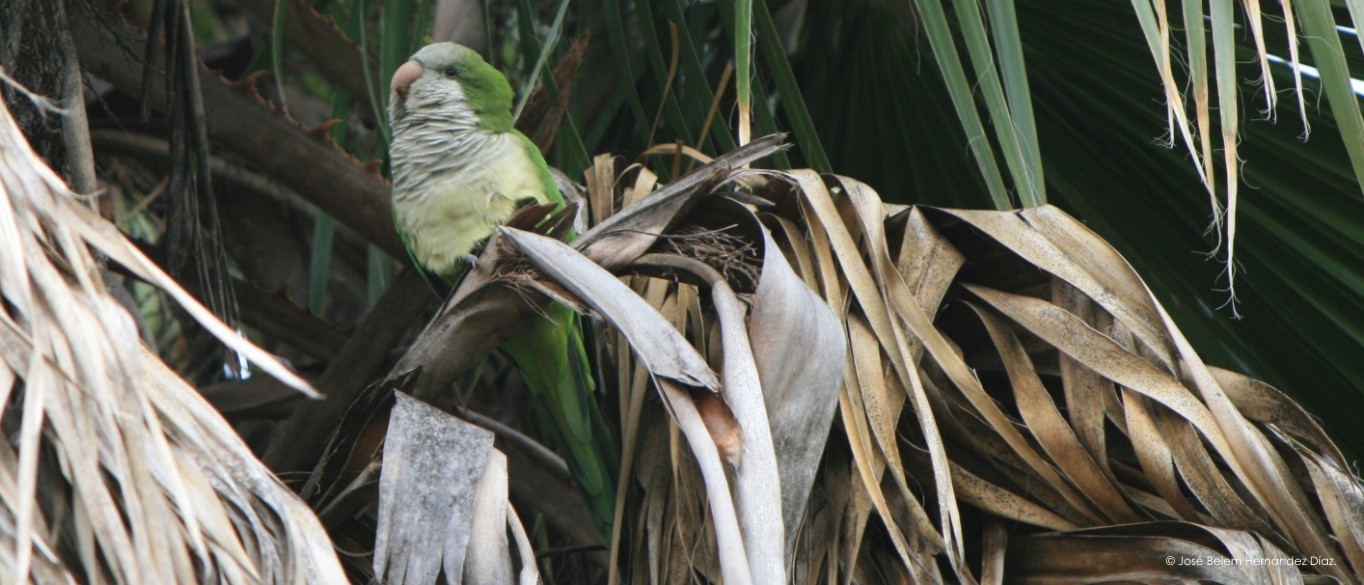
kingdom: Animalia
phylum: Chordata
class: Aves
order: Psittaciformes
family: Psittacidae
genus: Myiopsitta
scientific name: Myiopsitta monachus
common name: Monk parakeet
